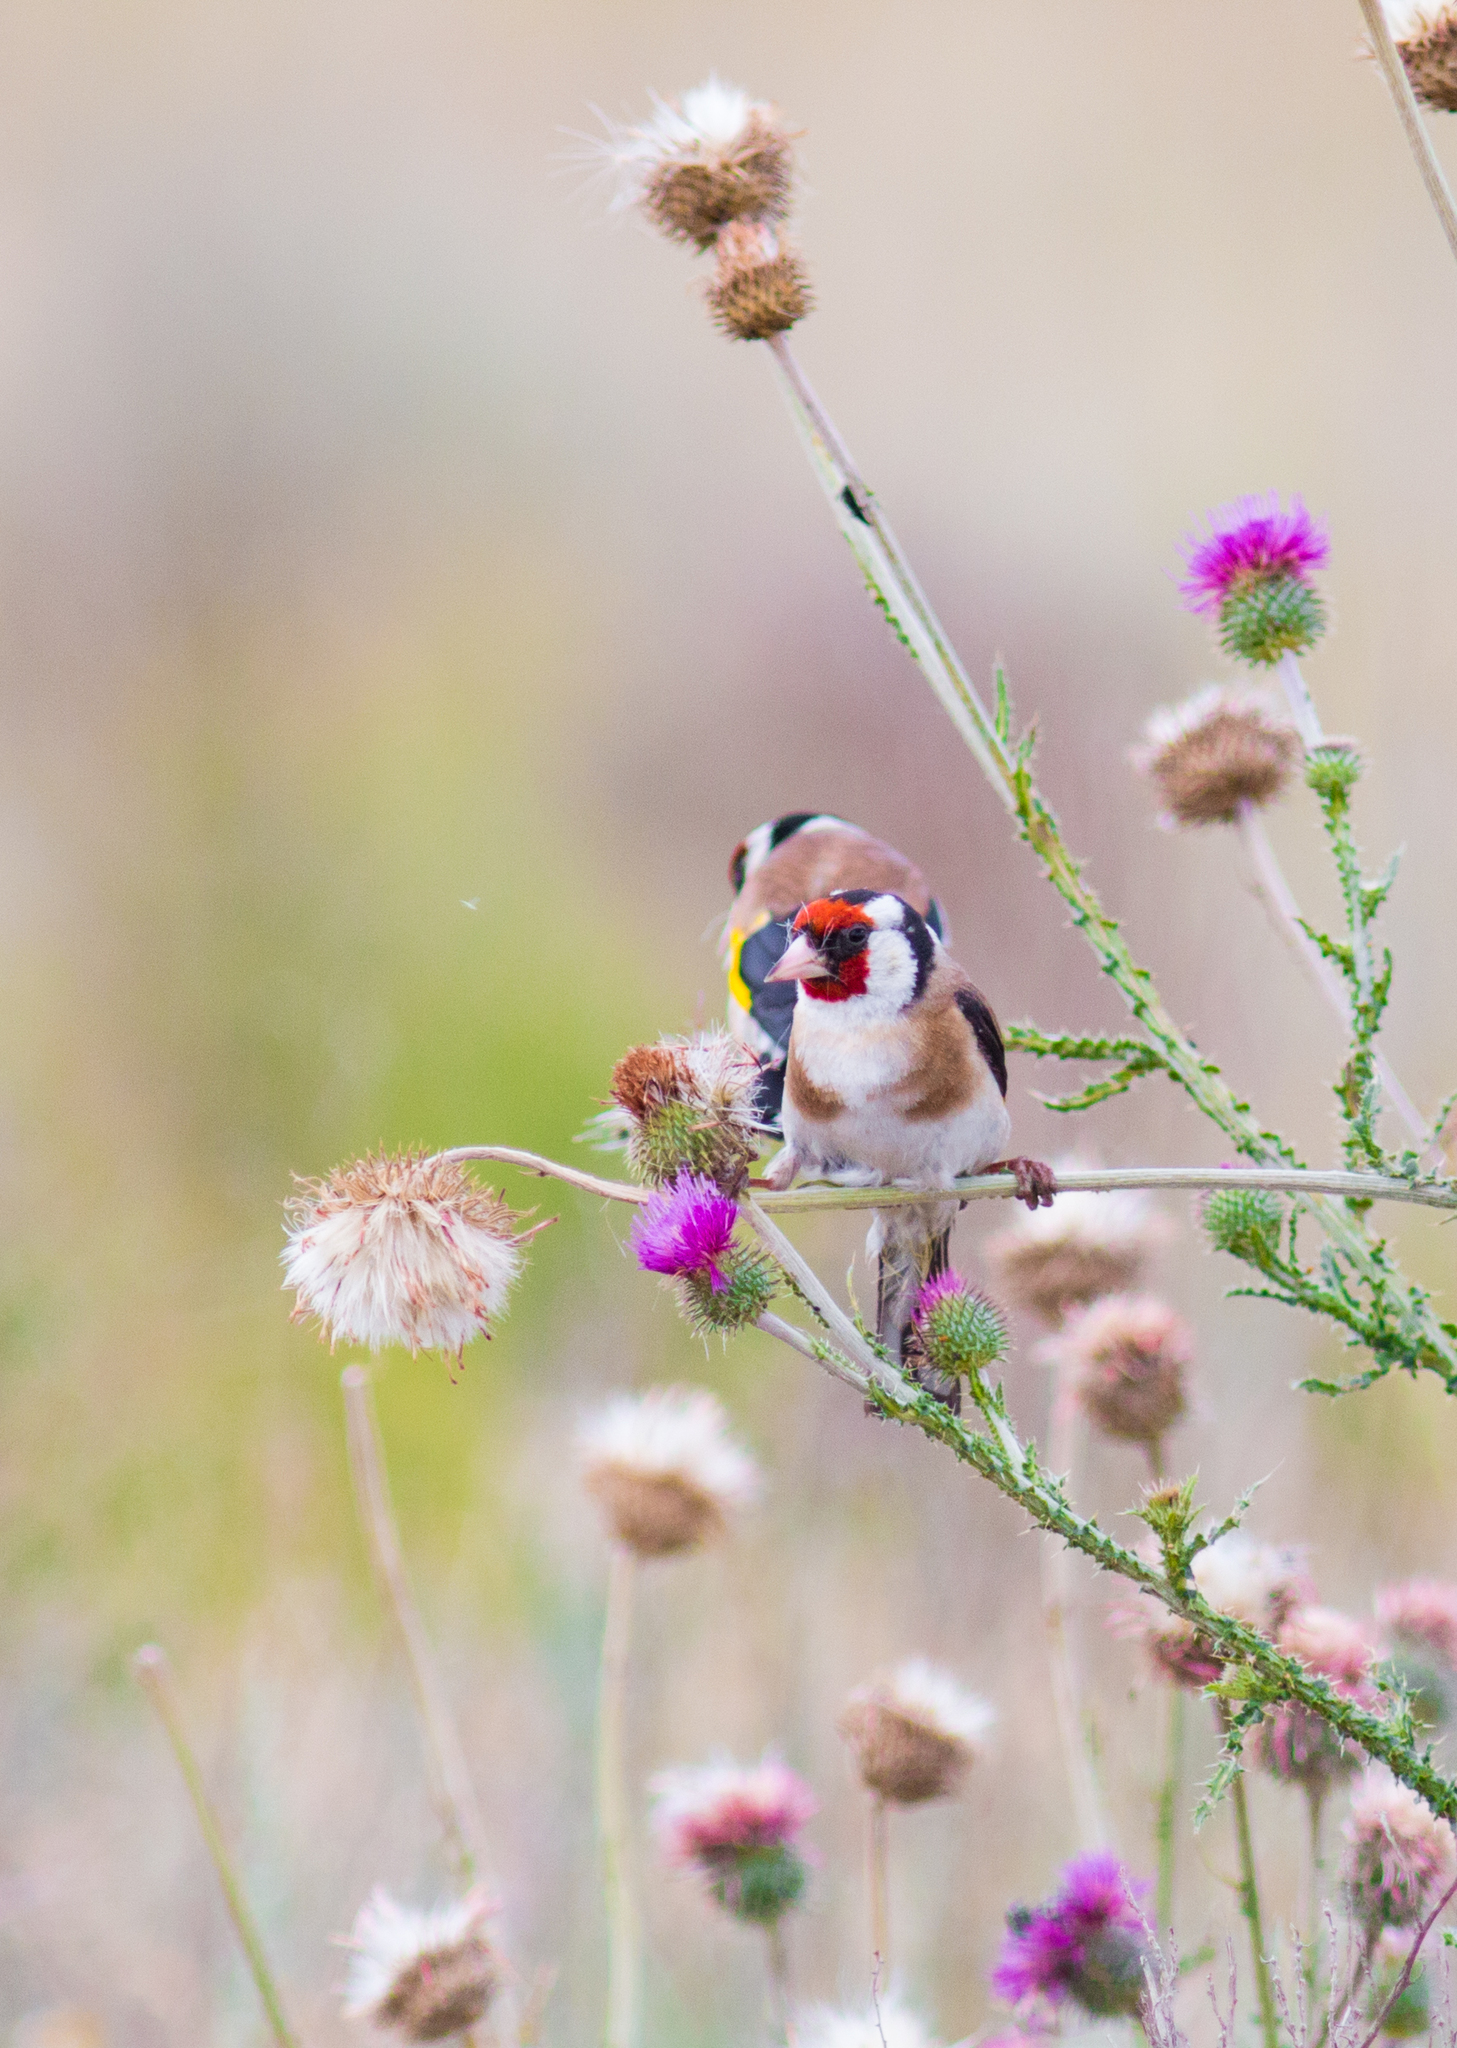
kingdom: Animalia
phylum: Chordata
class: Aves
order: Passeriformes
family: Fringillidae
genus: Carduelis
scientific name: Carduelis carduelis
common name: European goldfinch
